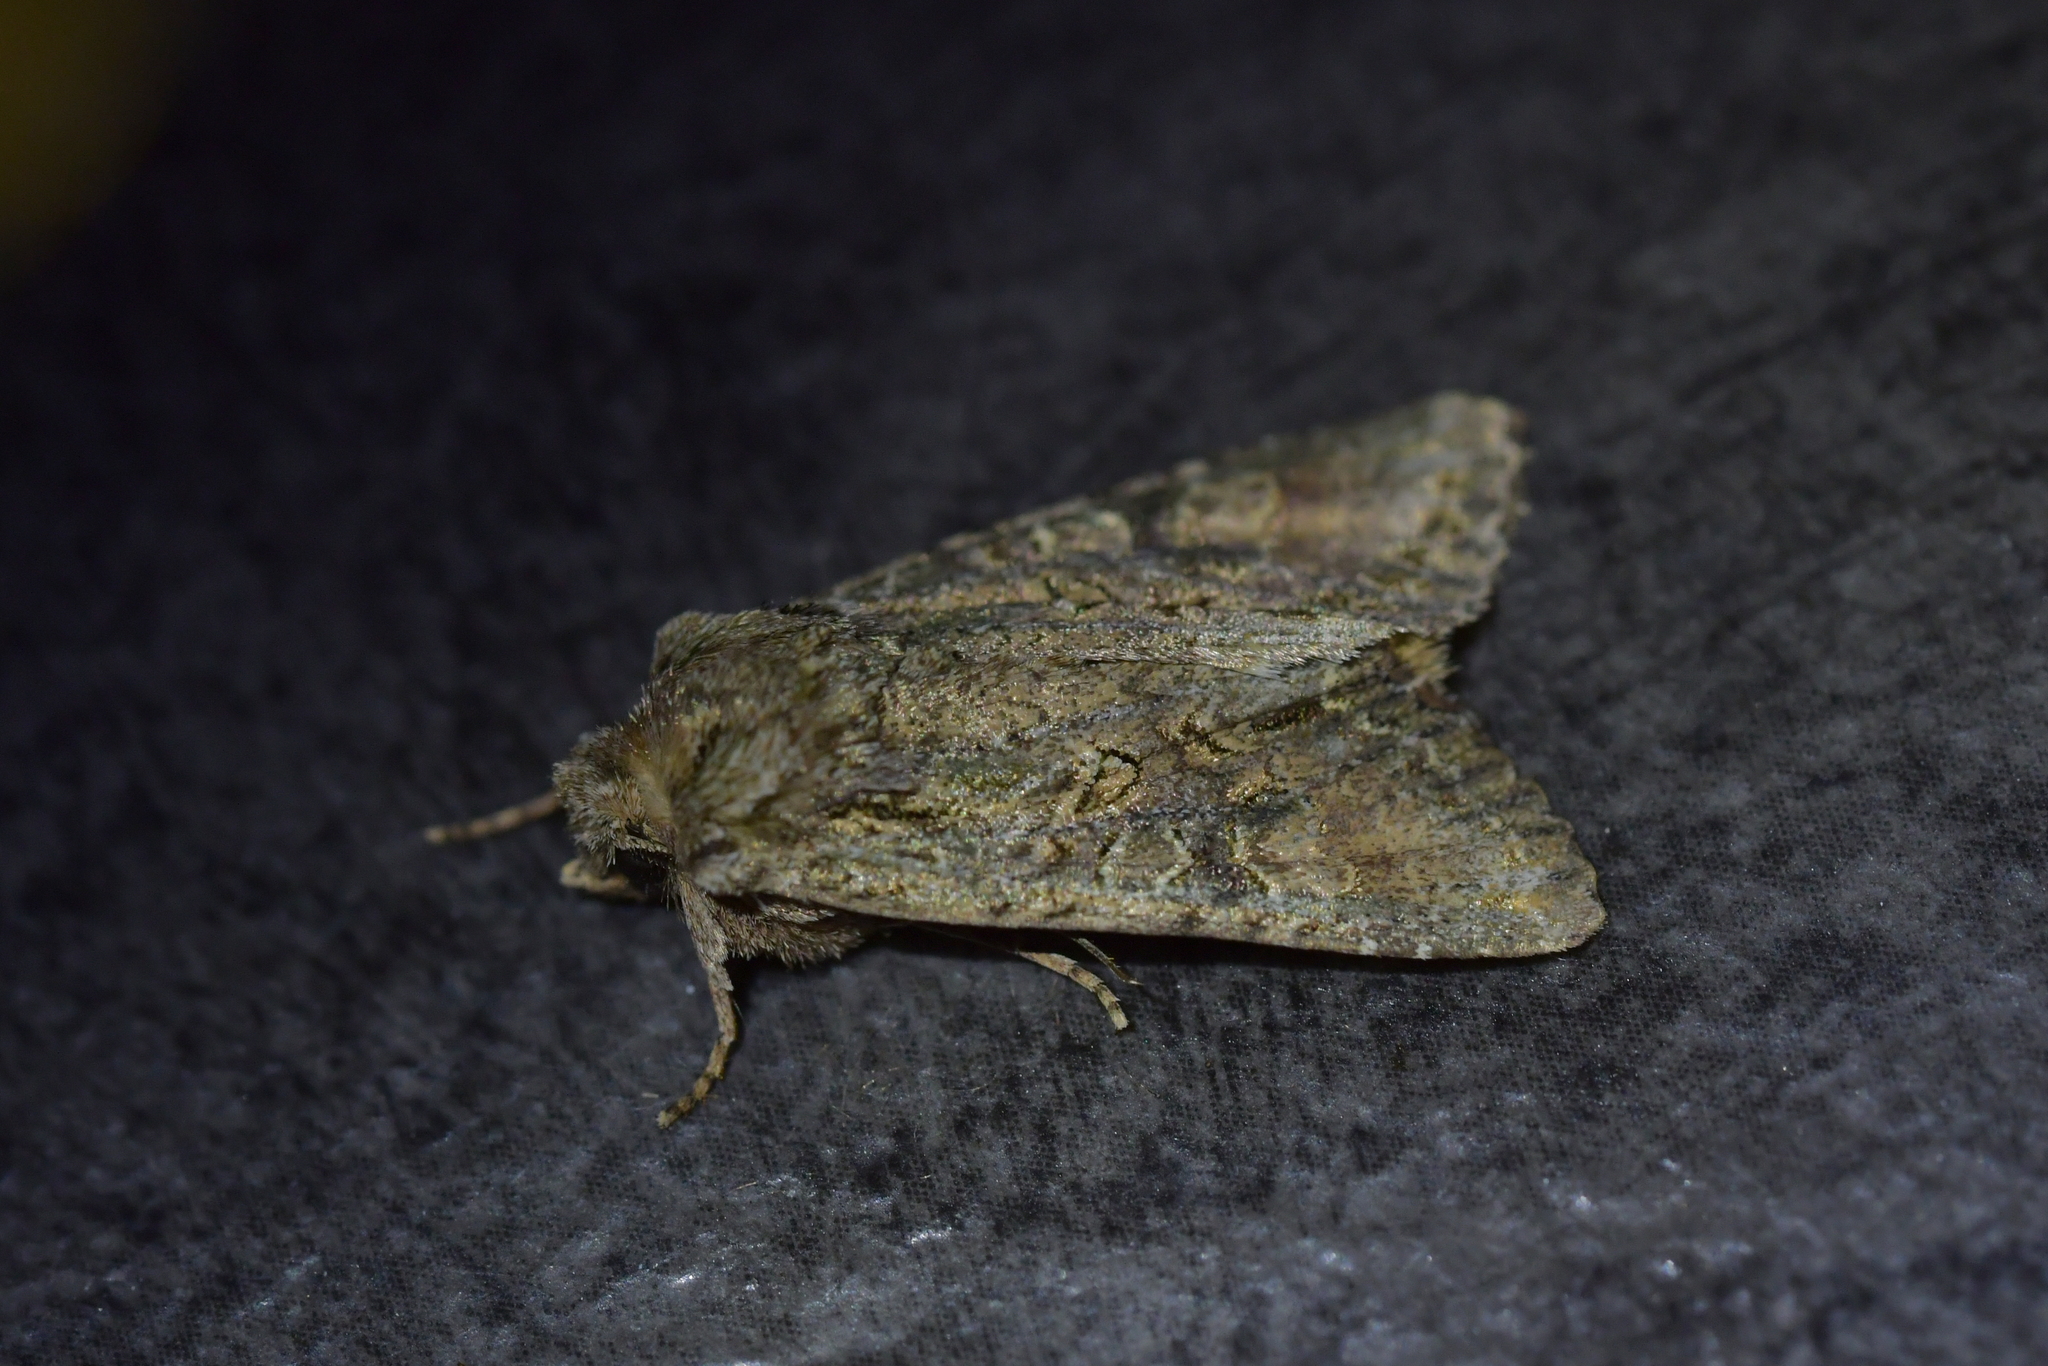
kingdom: Animalia
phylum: Arthropoda
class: Insecta
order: Lepidoptera
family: Noctuidae
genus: Ichneutica
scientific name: Ichneutica mutans
